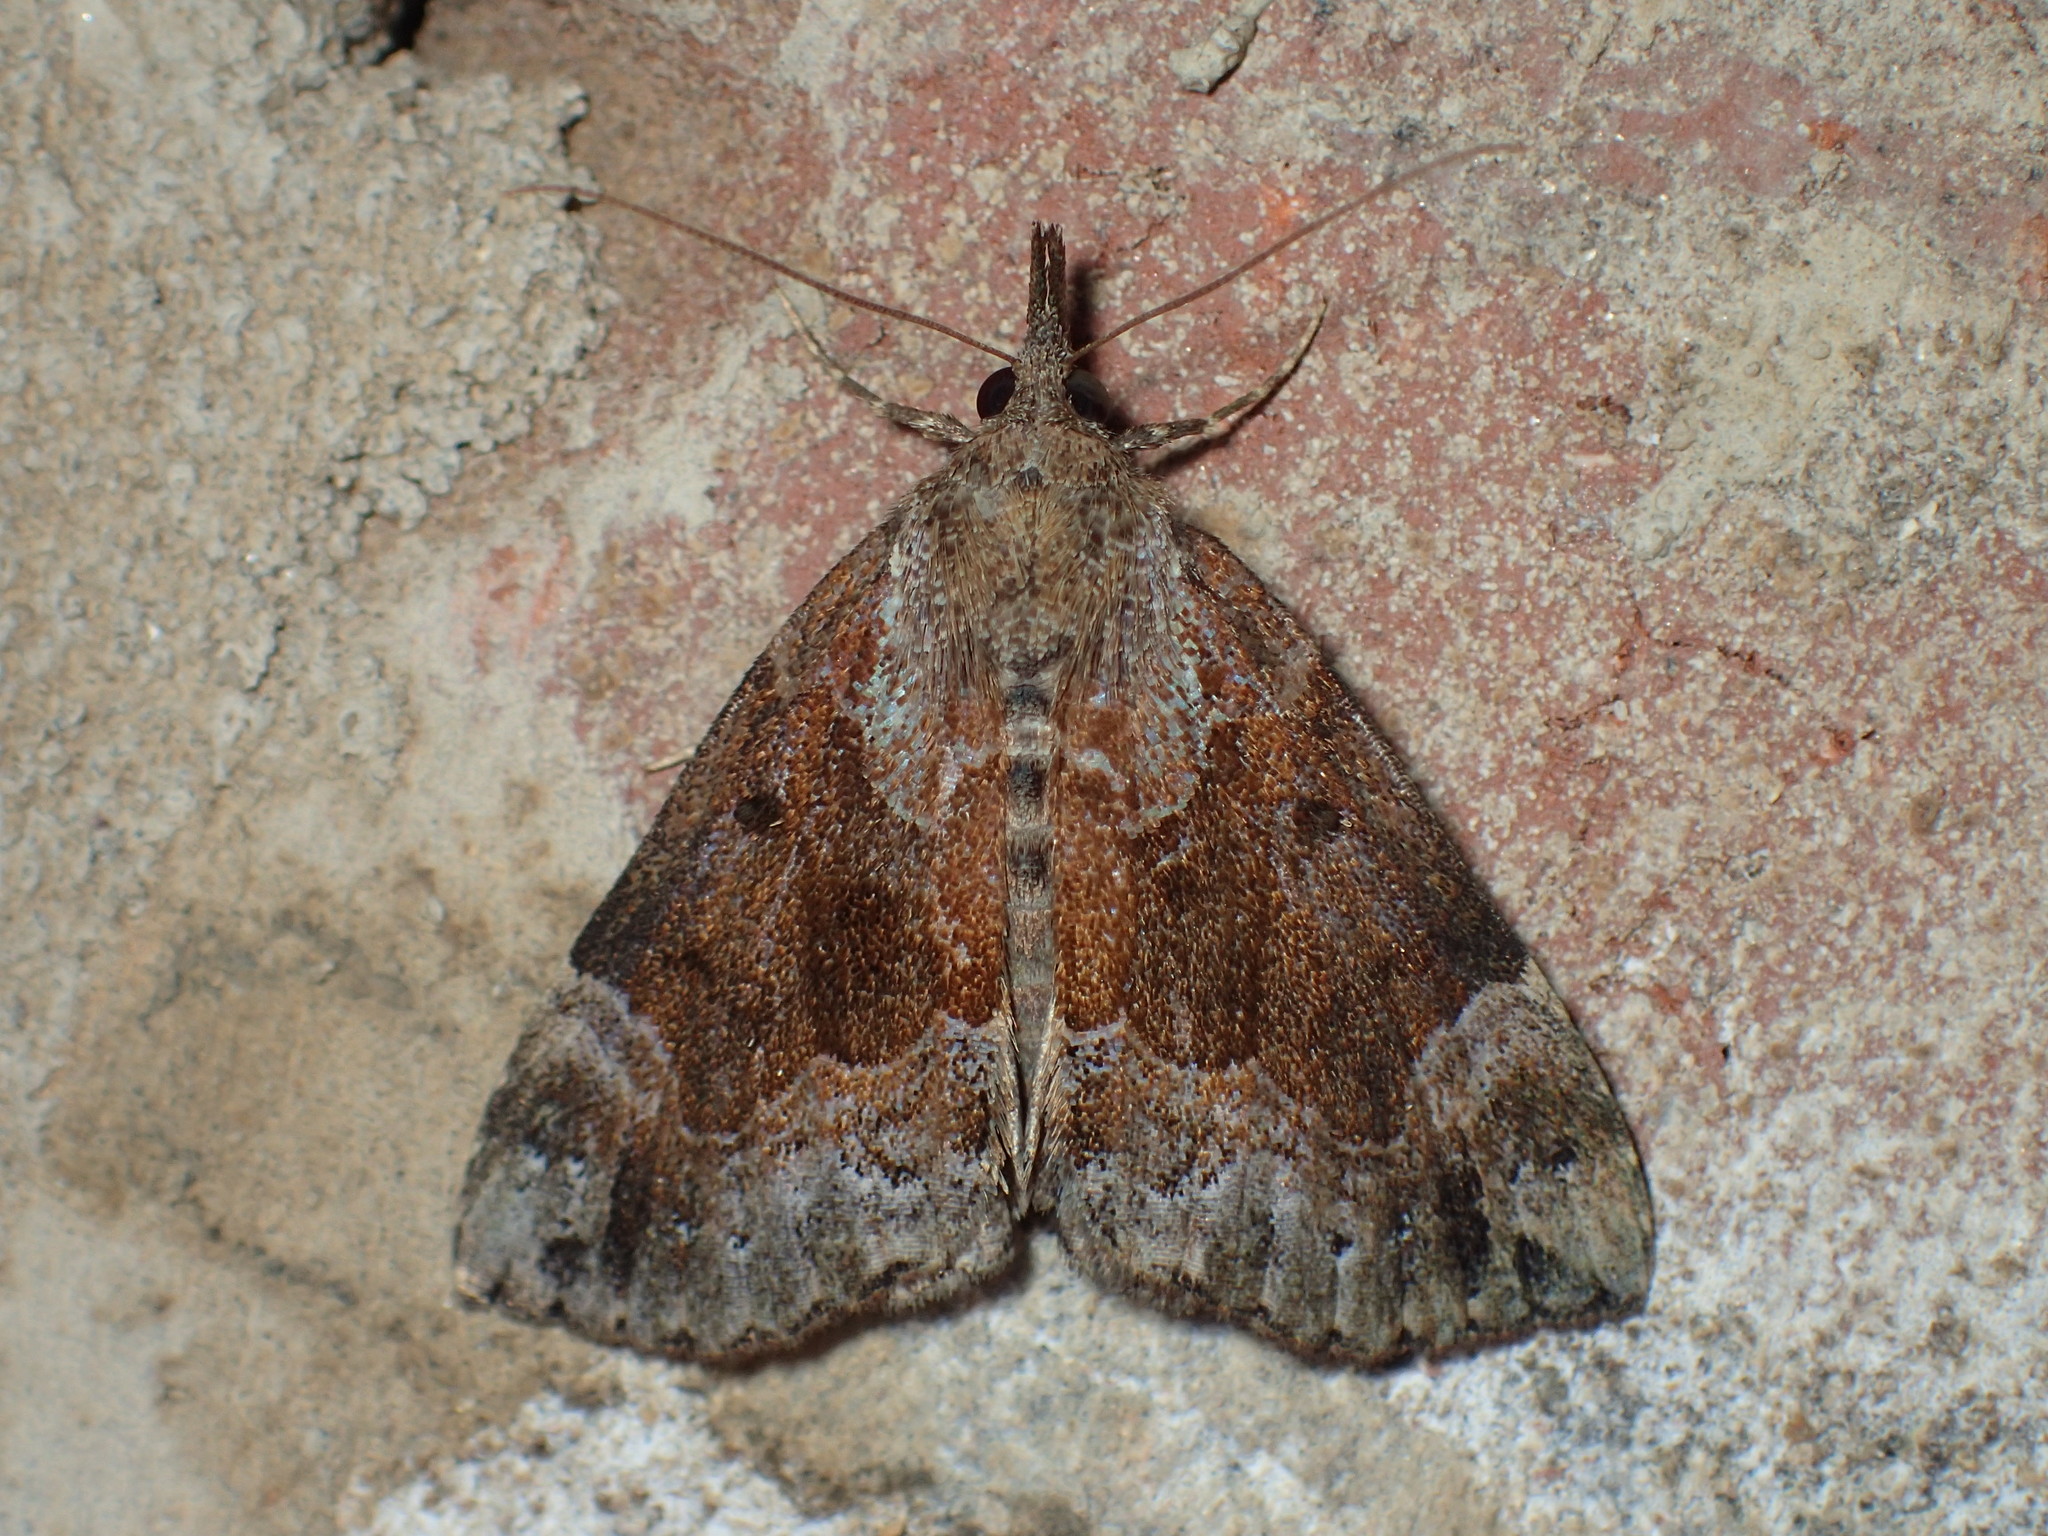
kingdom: Animalia
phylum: Arthropoda
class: Insecta
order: Lepidoptera
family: Erebidae
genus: Hypena
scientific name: Hypena palparia
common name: Mottled bomolocha moth
